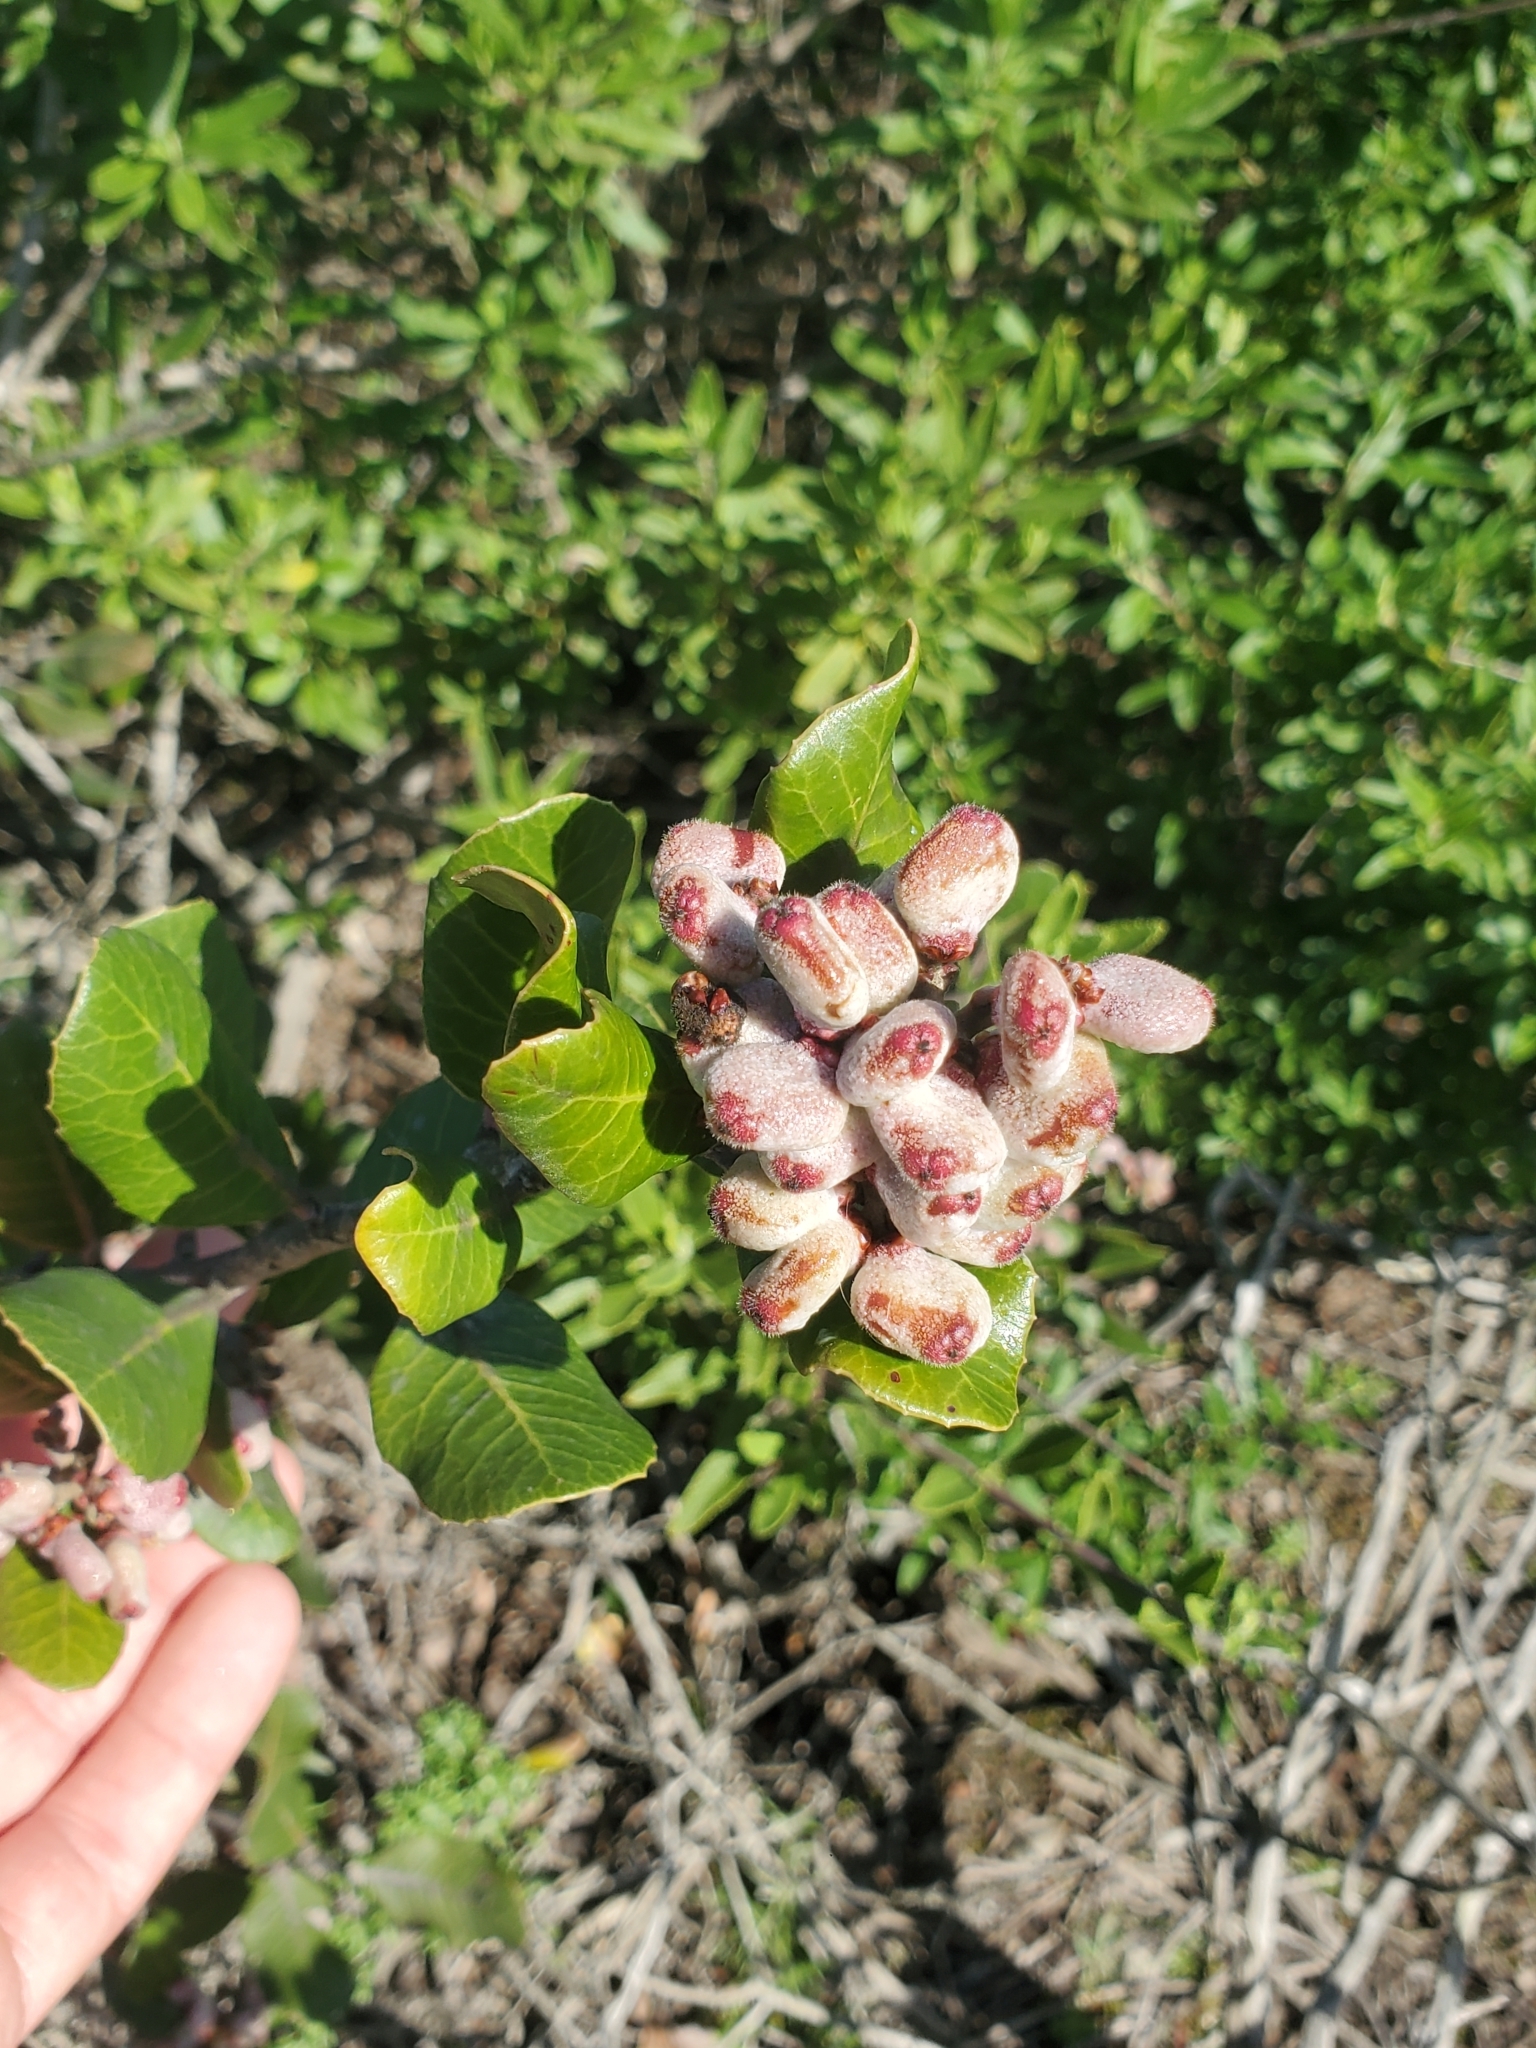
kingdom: Plantae
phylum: Tracheophyta
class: Magnoliopsida
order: Sapindales
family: Anacardiaceae
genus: Rhus
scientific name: Rhus integrifolia
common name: Lemonade sumac
